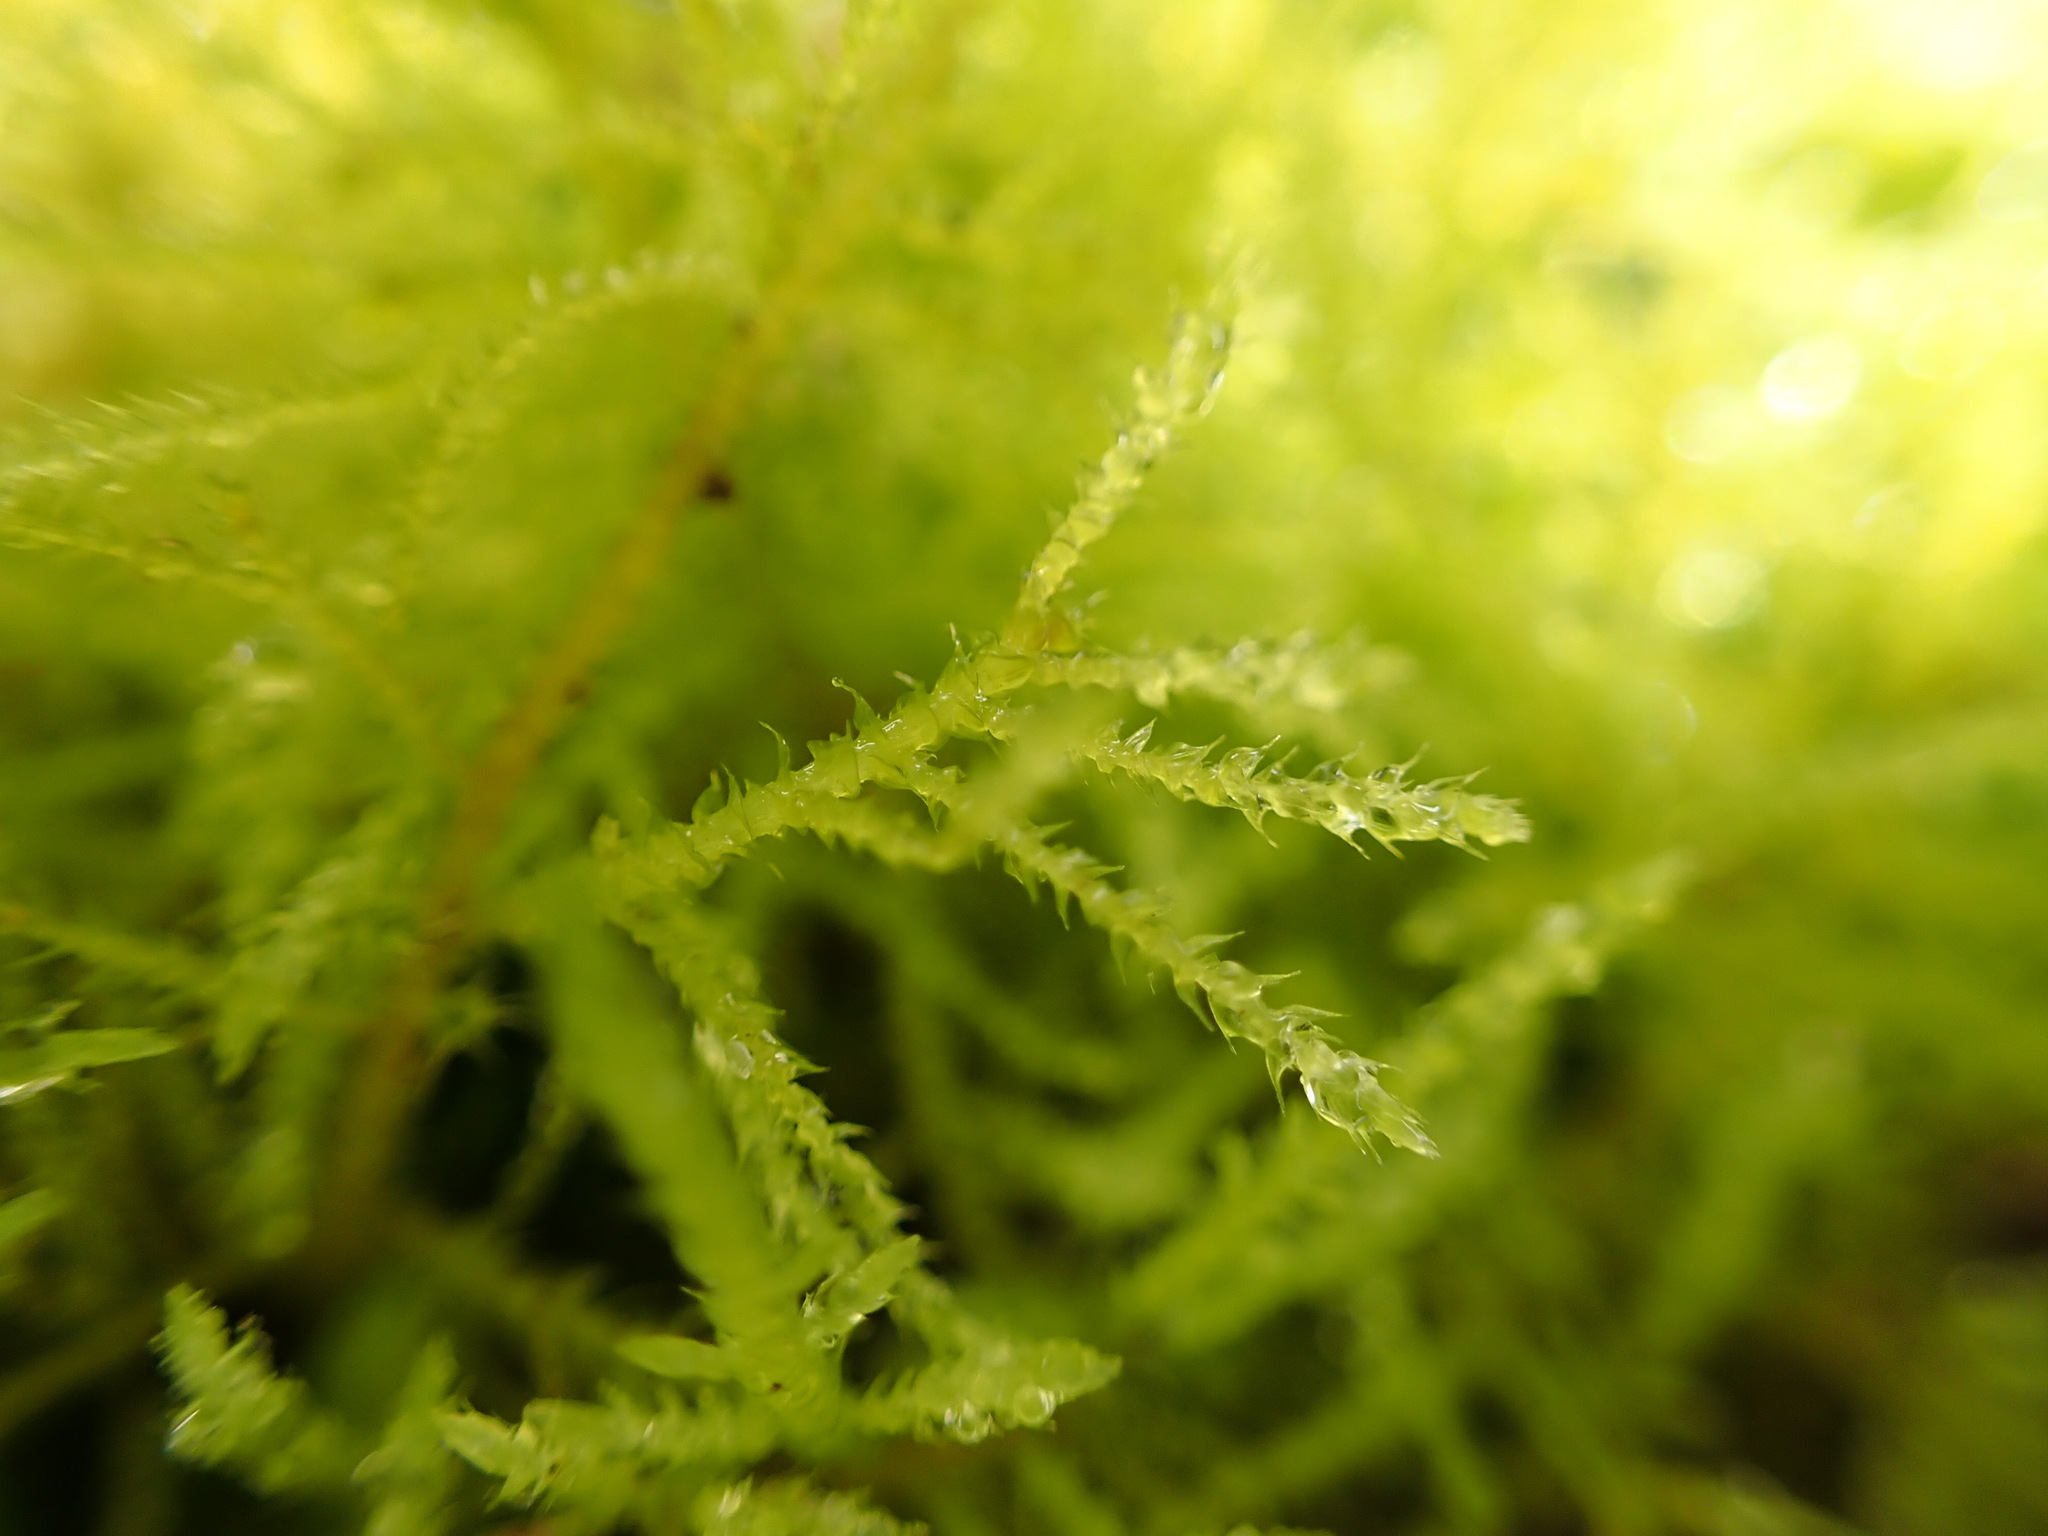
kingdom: Plantae
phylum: Bryophyta
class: Bryopsida
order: Hypnales
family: Brachytheciaceae
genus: Kindbergia
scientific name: Kindbergia praelonga
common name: Slender beaked moss
